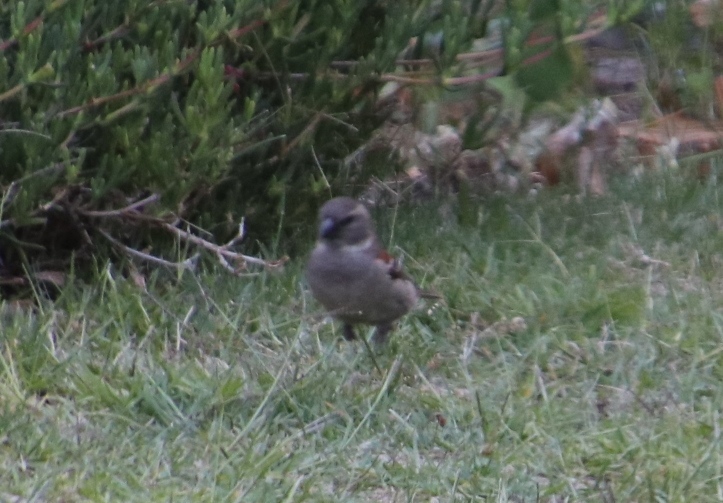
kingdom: Animalia
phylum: Chordata
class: Aves
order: Passeriformes
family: Passeridae
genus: Passer
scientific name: Passer melanurus
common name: Cape sparrow
